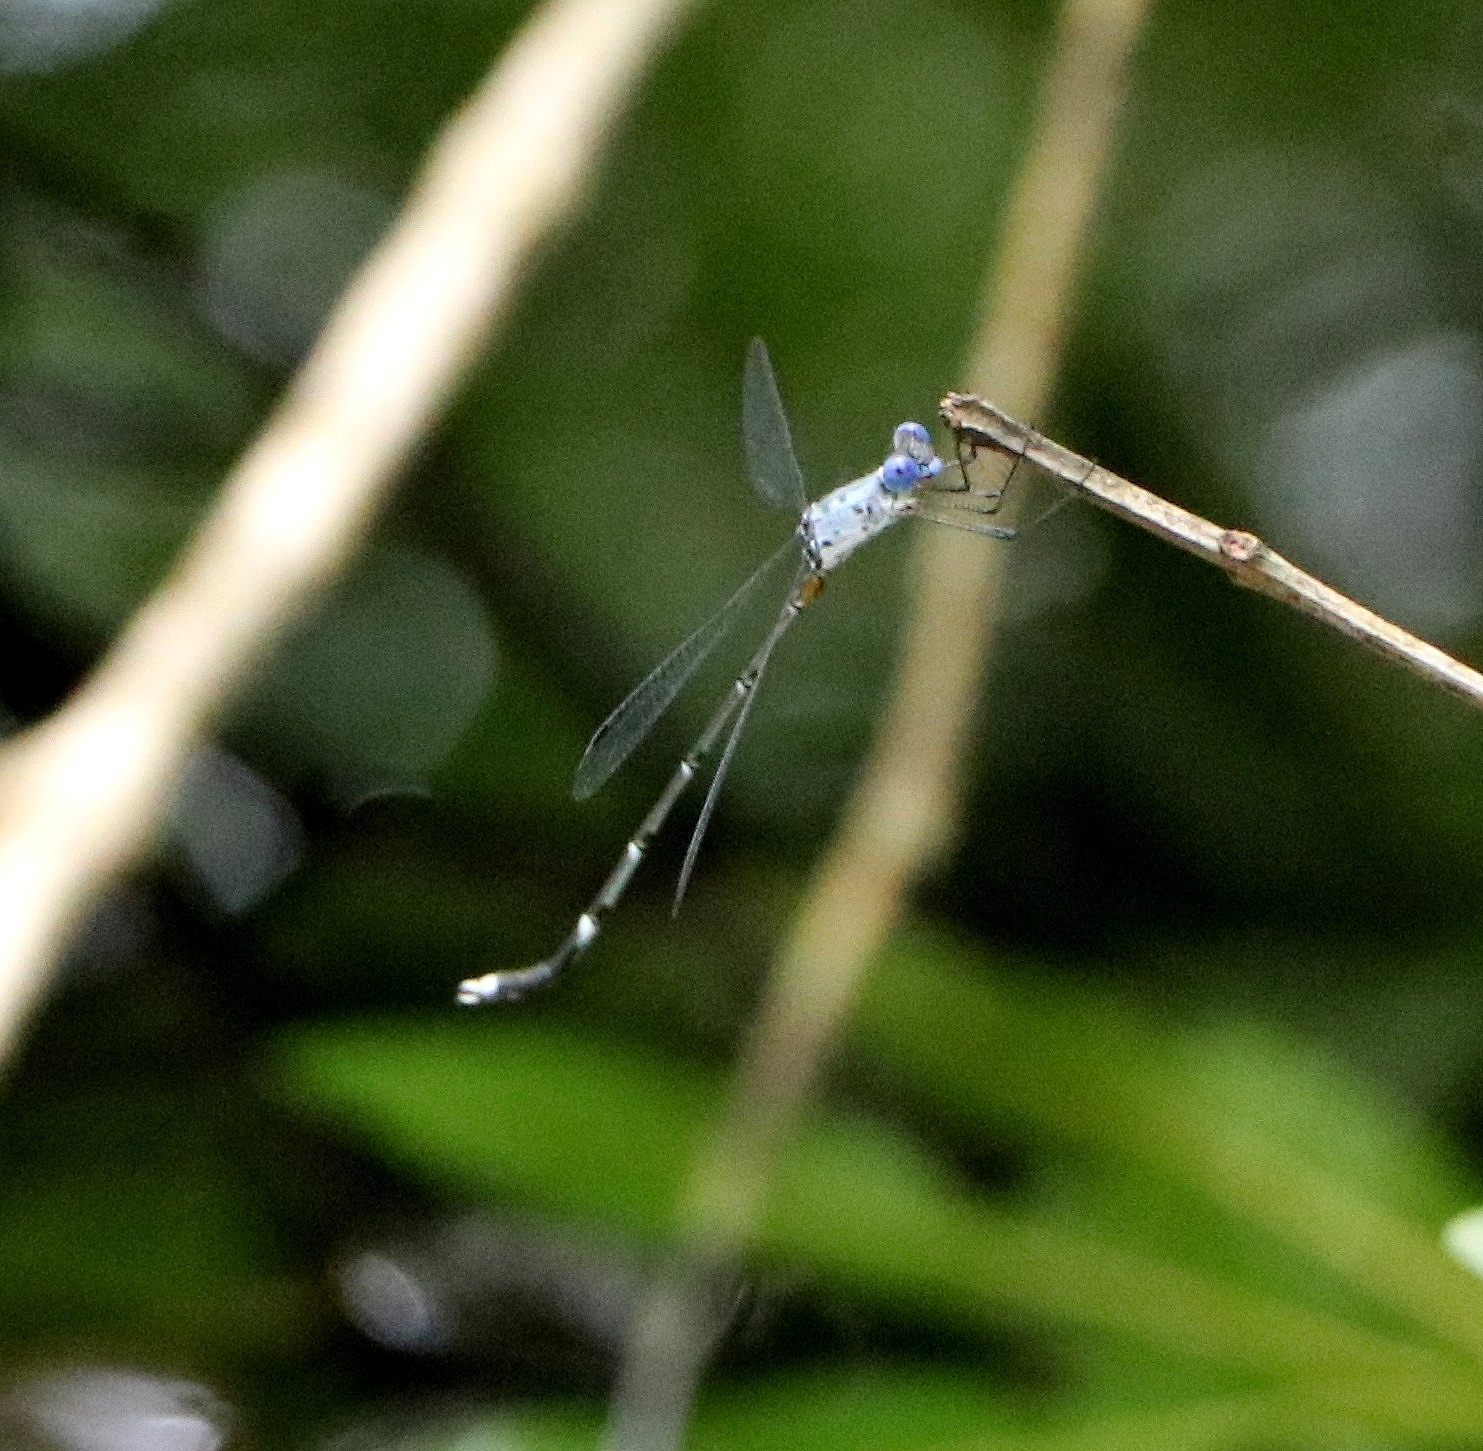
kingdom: Animalia
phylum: Arthropoda
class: Insecta
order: Odonata
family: Lestidae
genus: Lestes
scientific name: Lestes dorothea
